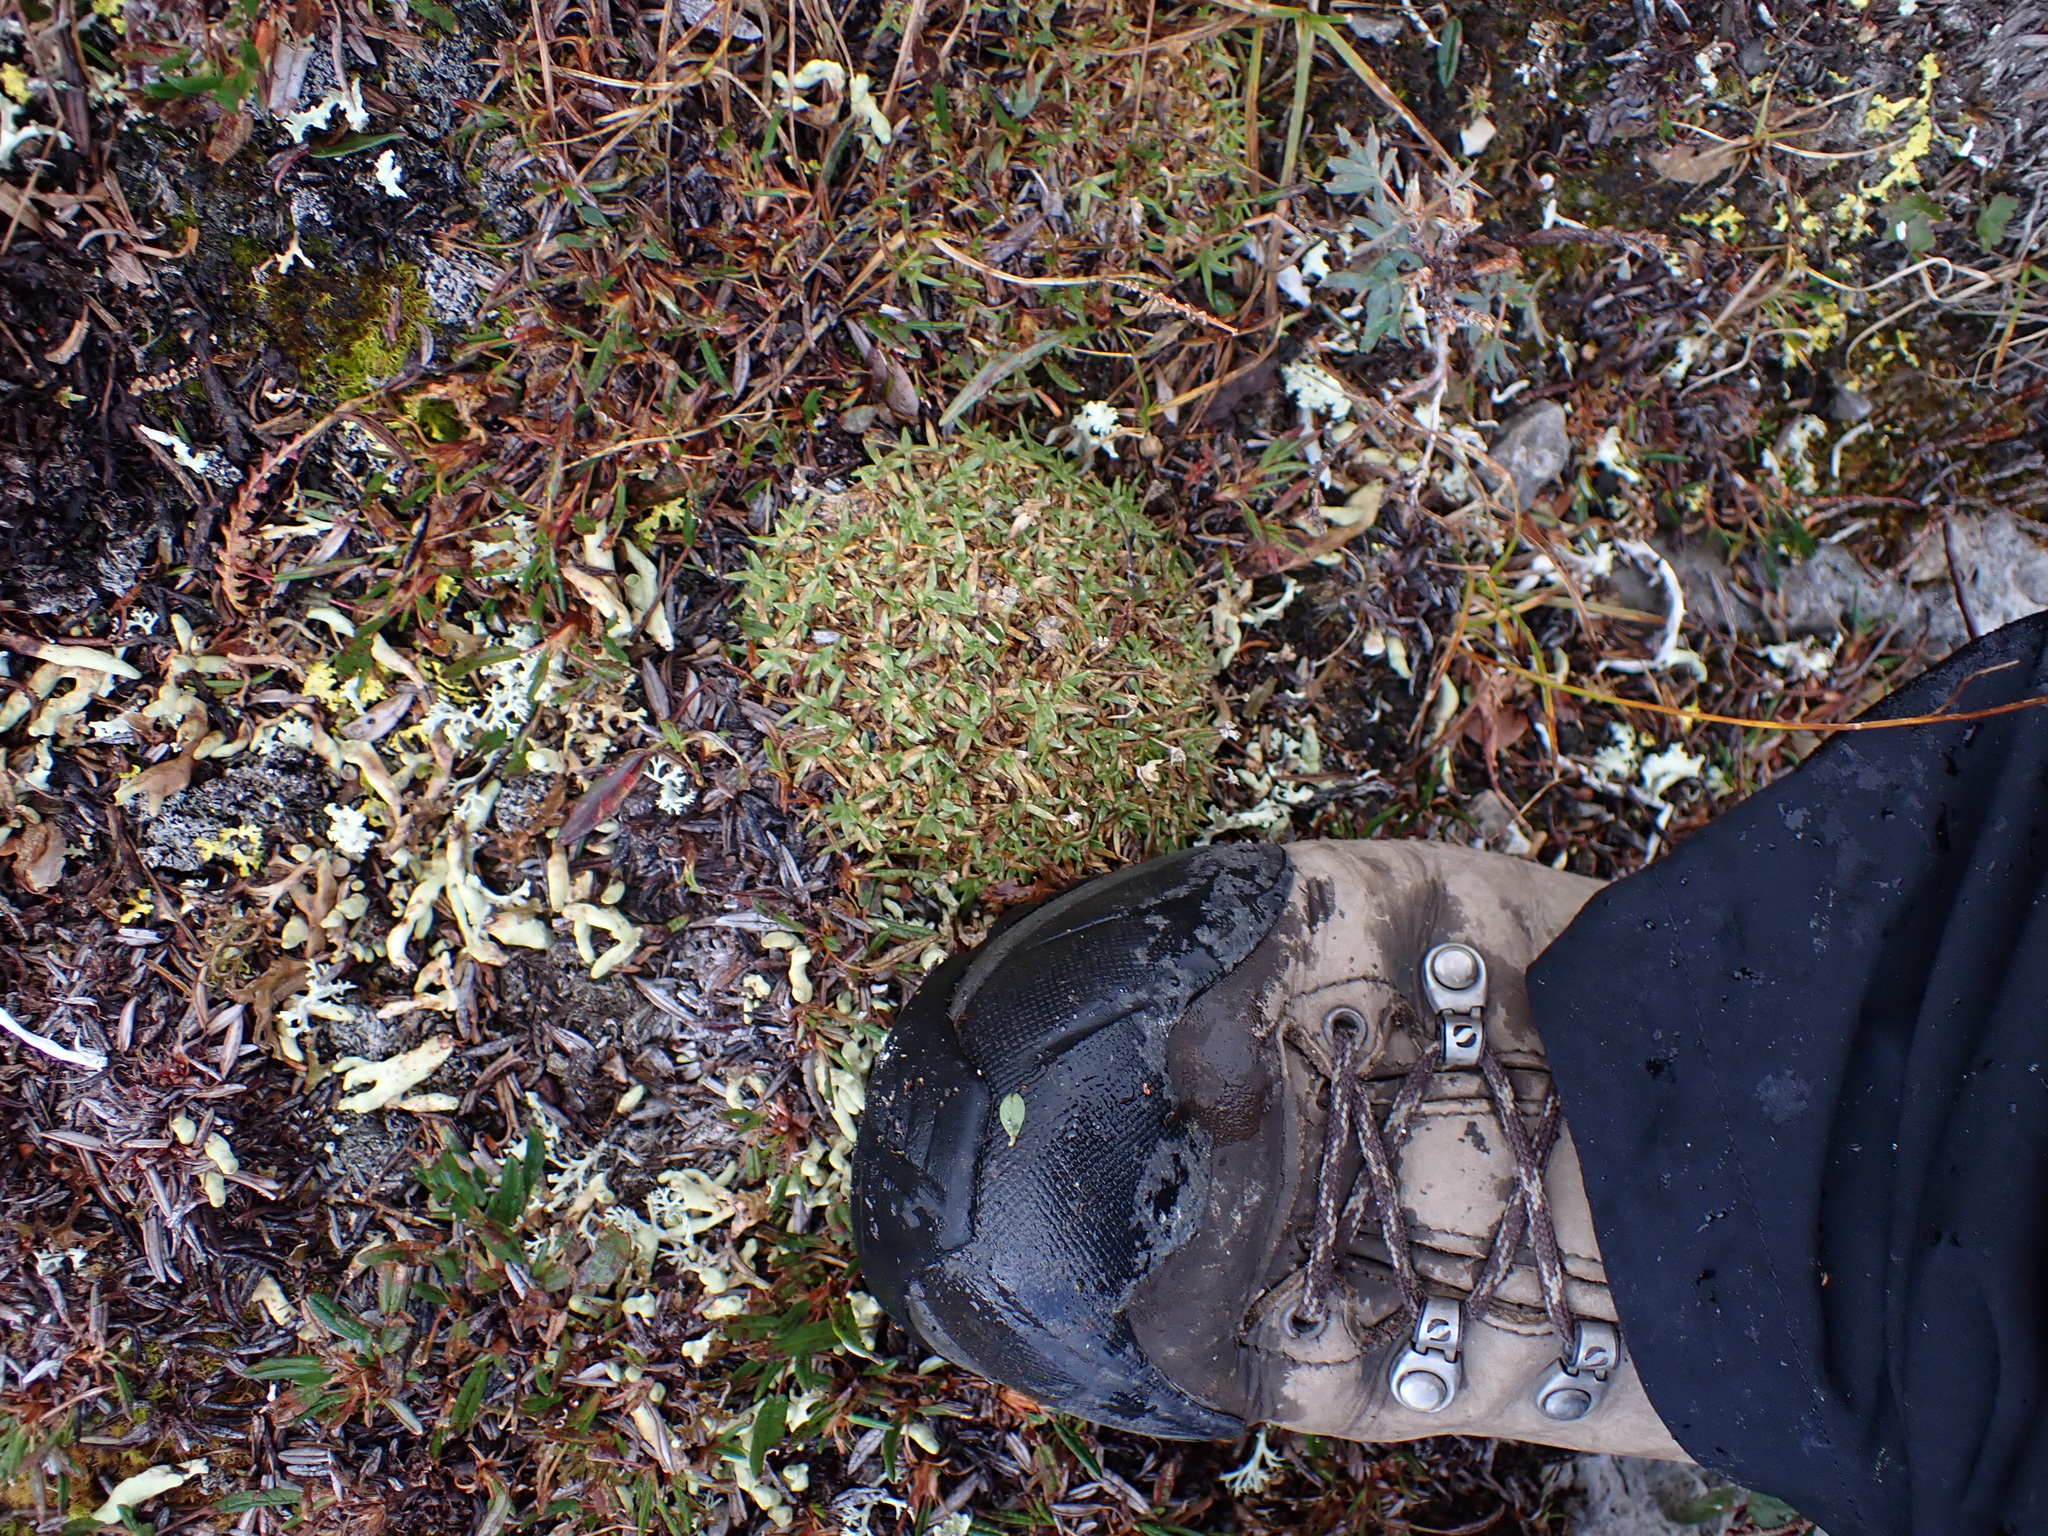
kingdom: Plantae
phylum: Tracheophyta
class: Magnoliopsida
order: Caryophyllales
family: Caryophyllaceae
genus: Silene
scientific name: Silene acaulis
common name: Moss campion
